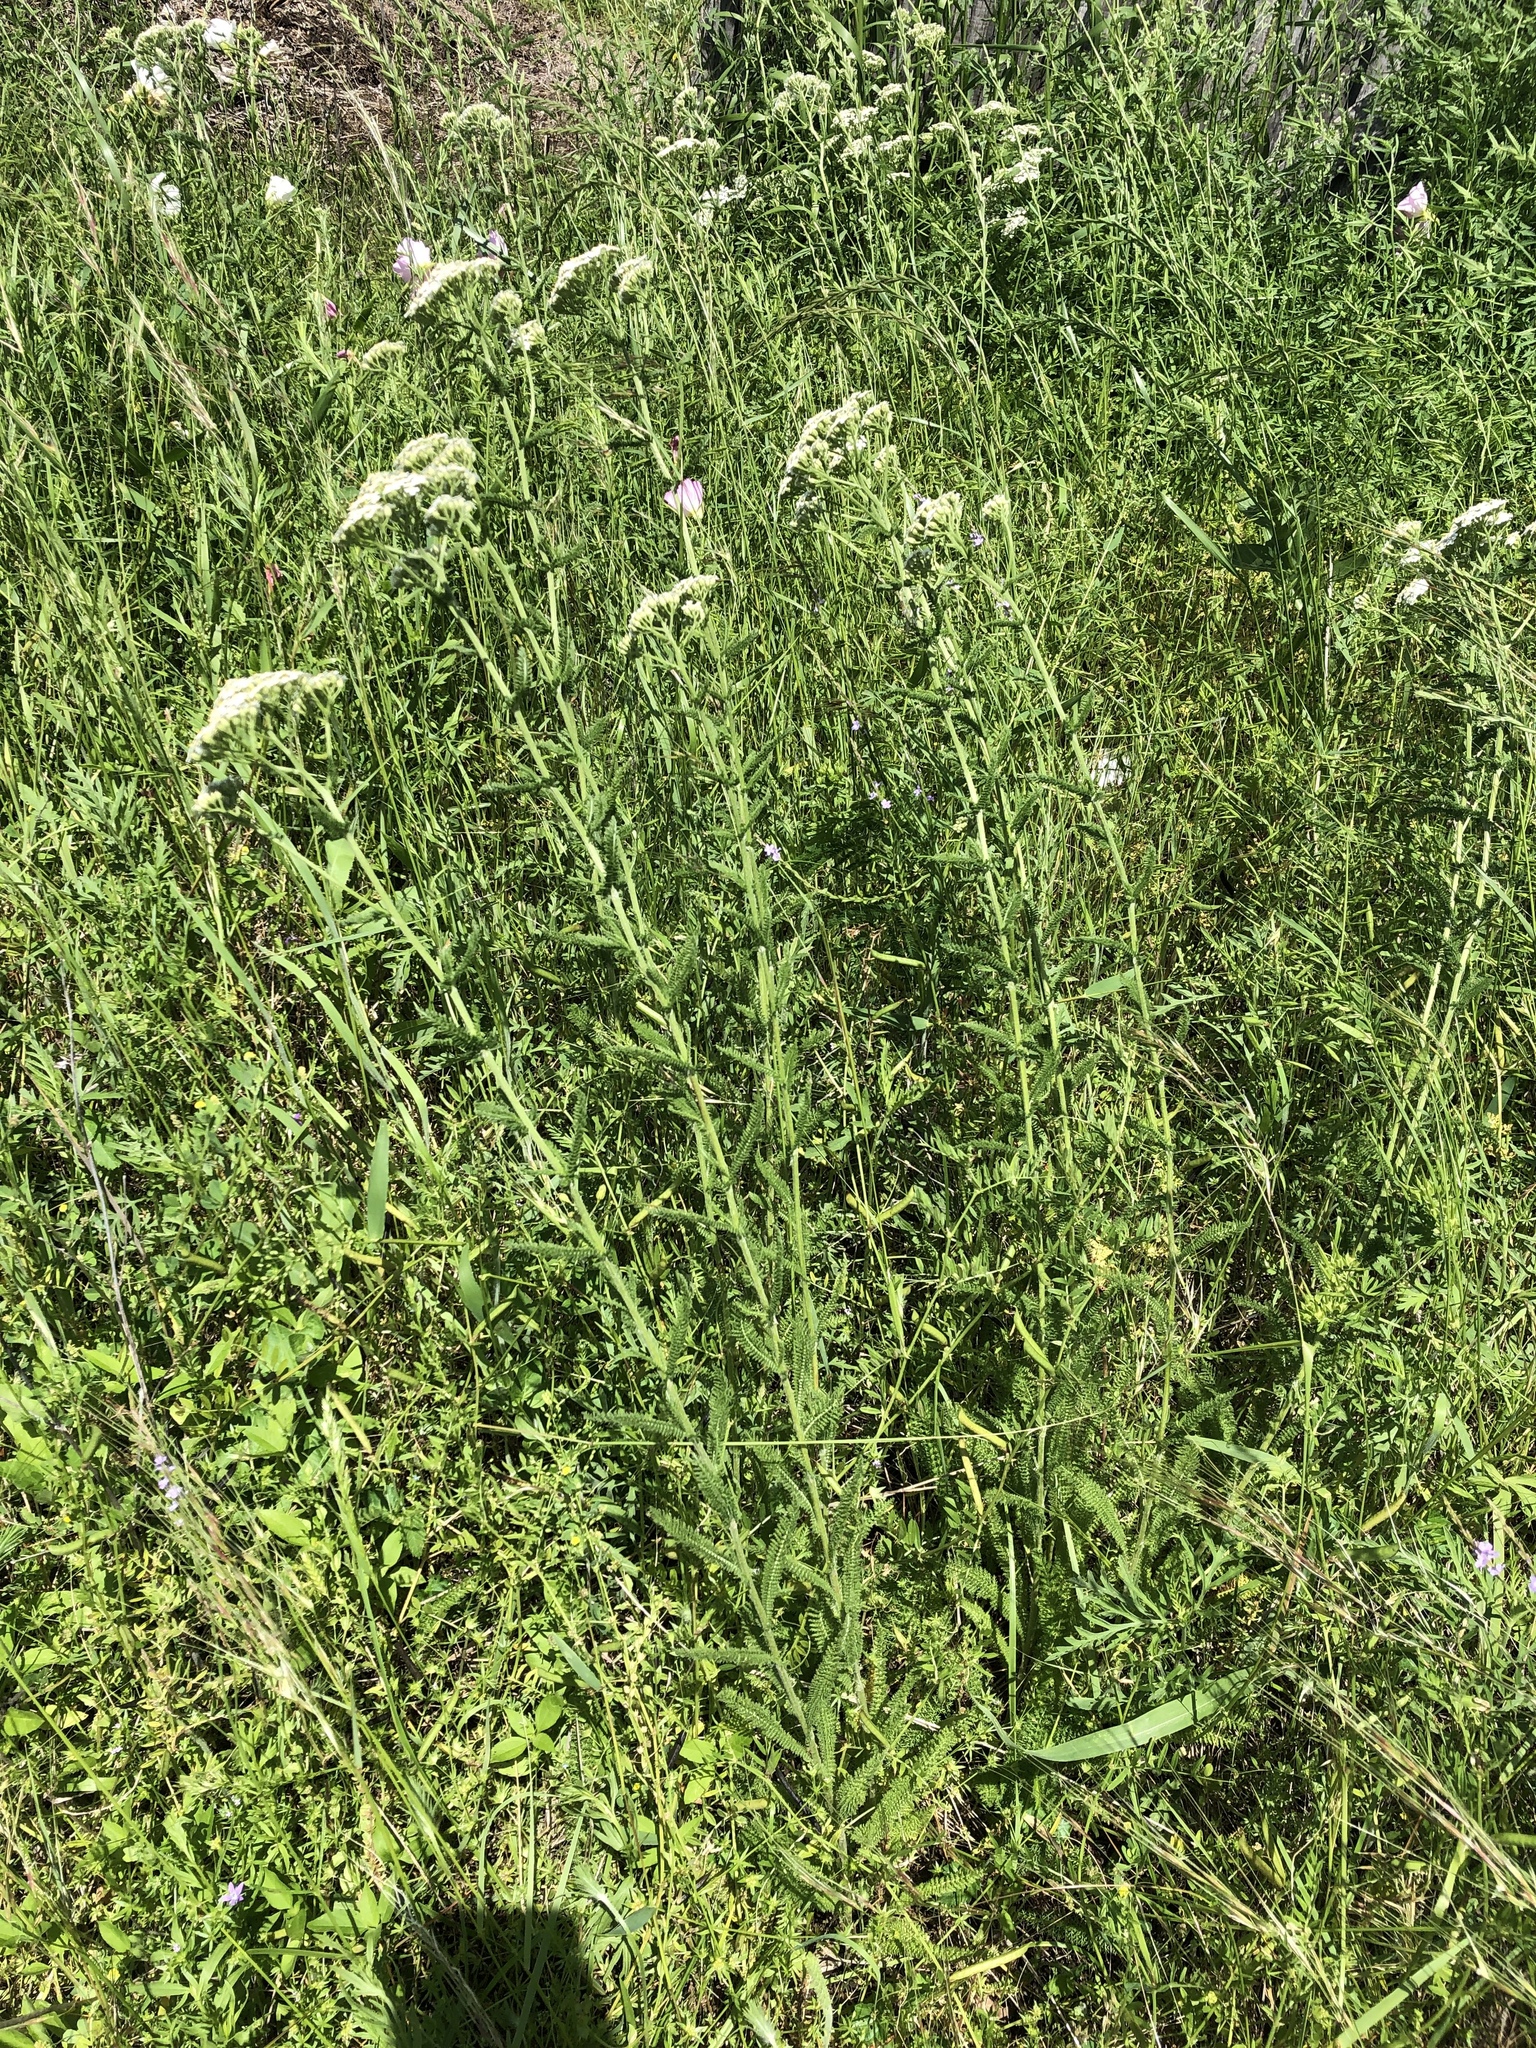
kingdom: Plantae
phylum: Tracheophyta
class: Magnoliopsida
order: Asterales
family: Asteraceae
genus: Achillea
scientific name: Achillea millefolium
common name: Yarrow
